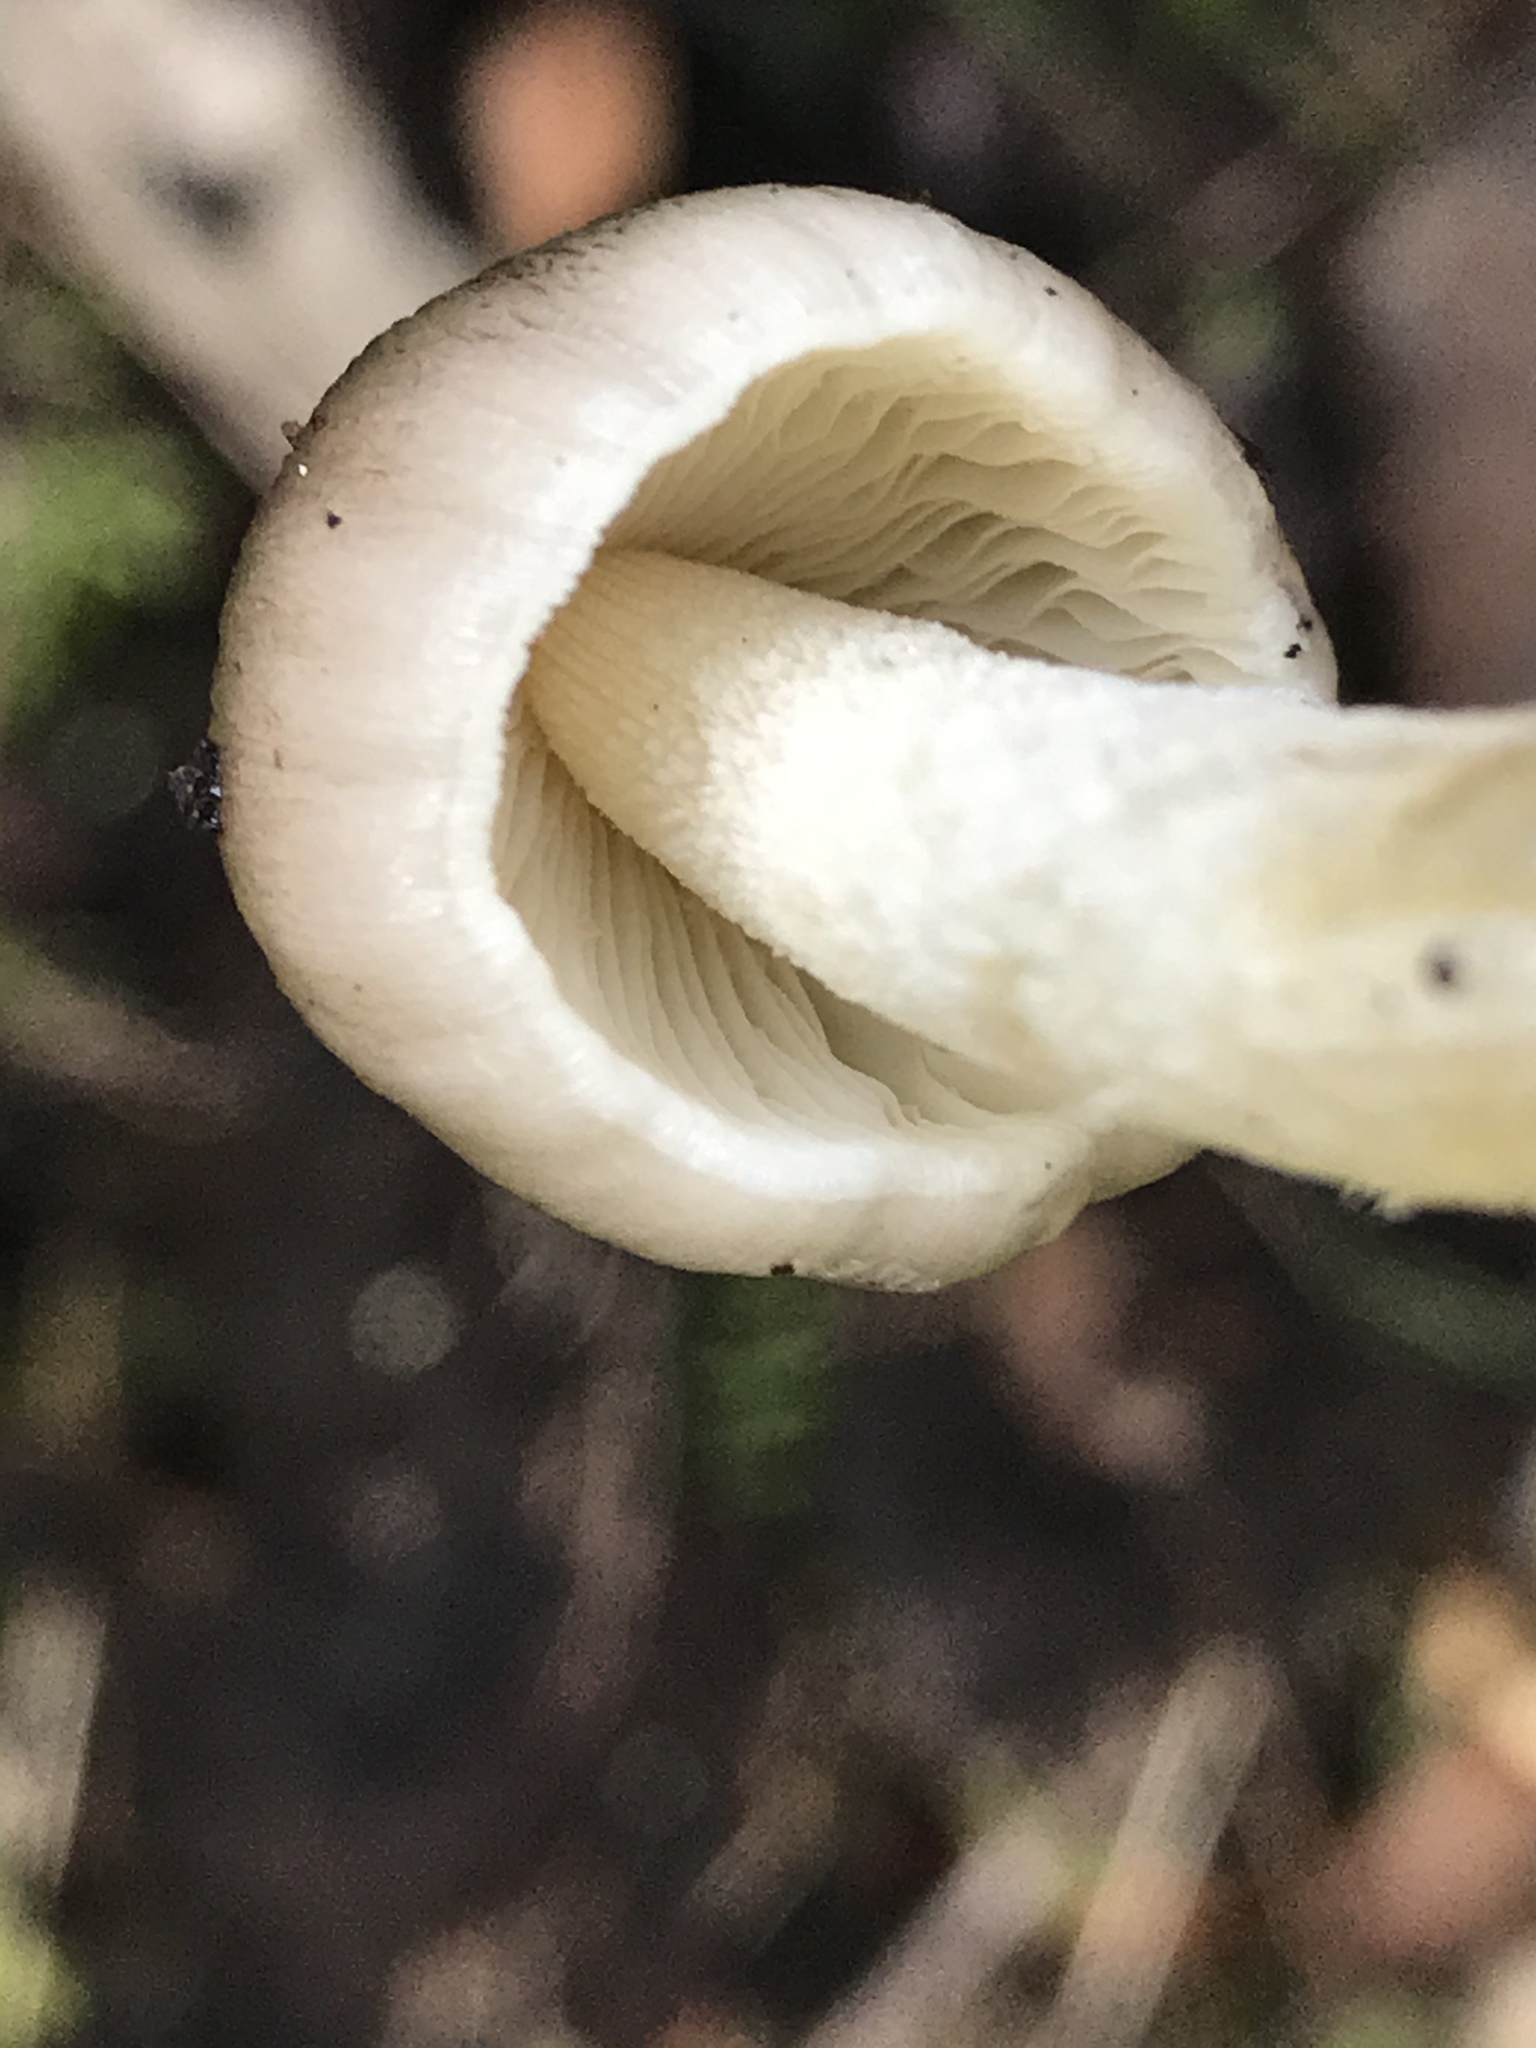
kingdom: Fungi
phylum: Basidiomycota
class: Agaricomycetes
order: Agaricales
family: Bolbitiaceae
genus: Bolbitius
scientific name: Bolbitius reticulatus
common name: Netted fieldcap
